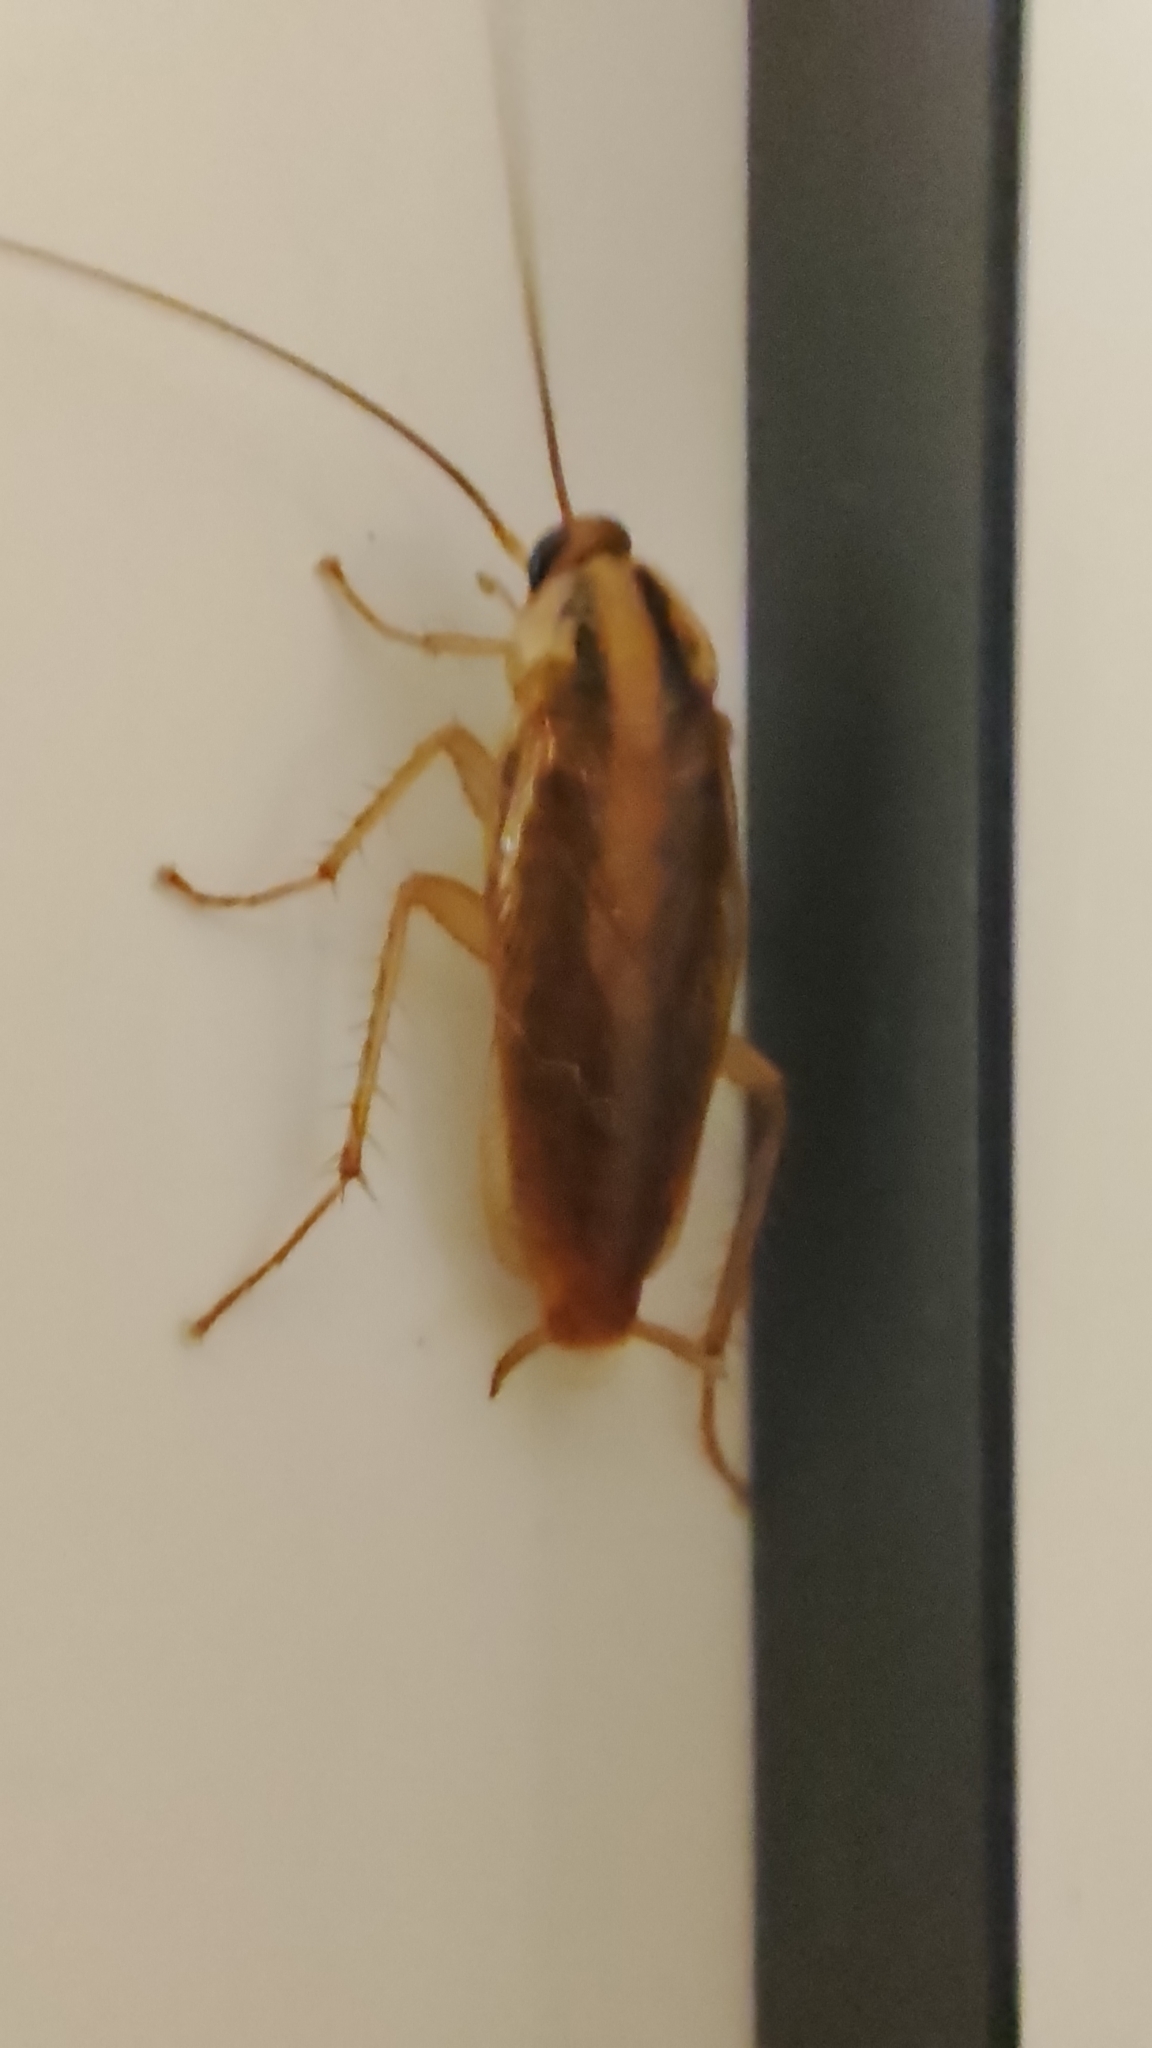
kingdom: Animalia
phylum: Arthropoda
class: Insecta
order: Blattodea
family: Ectobiidae
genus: Blattella
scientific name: Blattella germanica
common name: German cockroach
